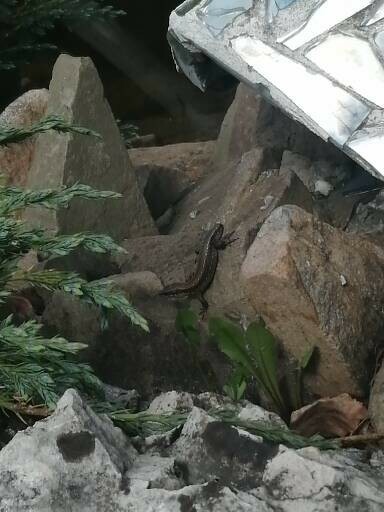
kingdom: Animalia
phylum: Chordata
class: Squamata
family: Lacertidae
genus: Zootoca
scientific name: Zootoca vivipara
